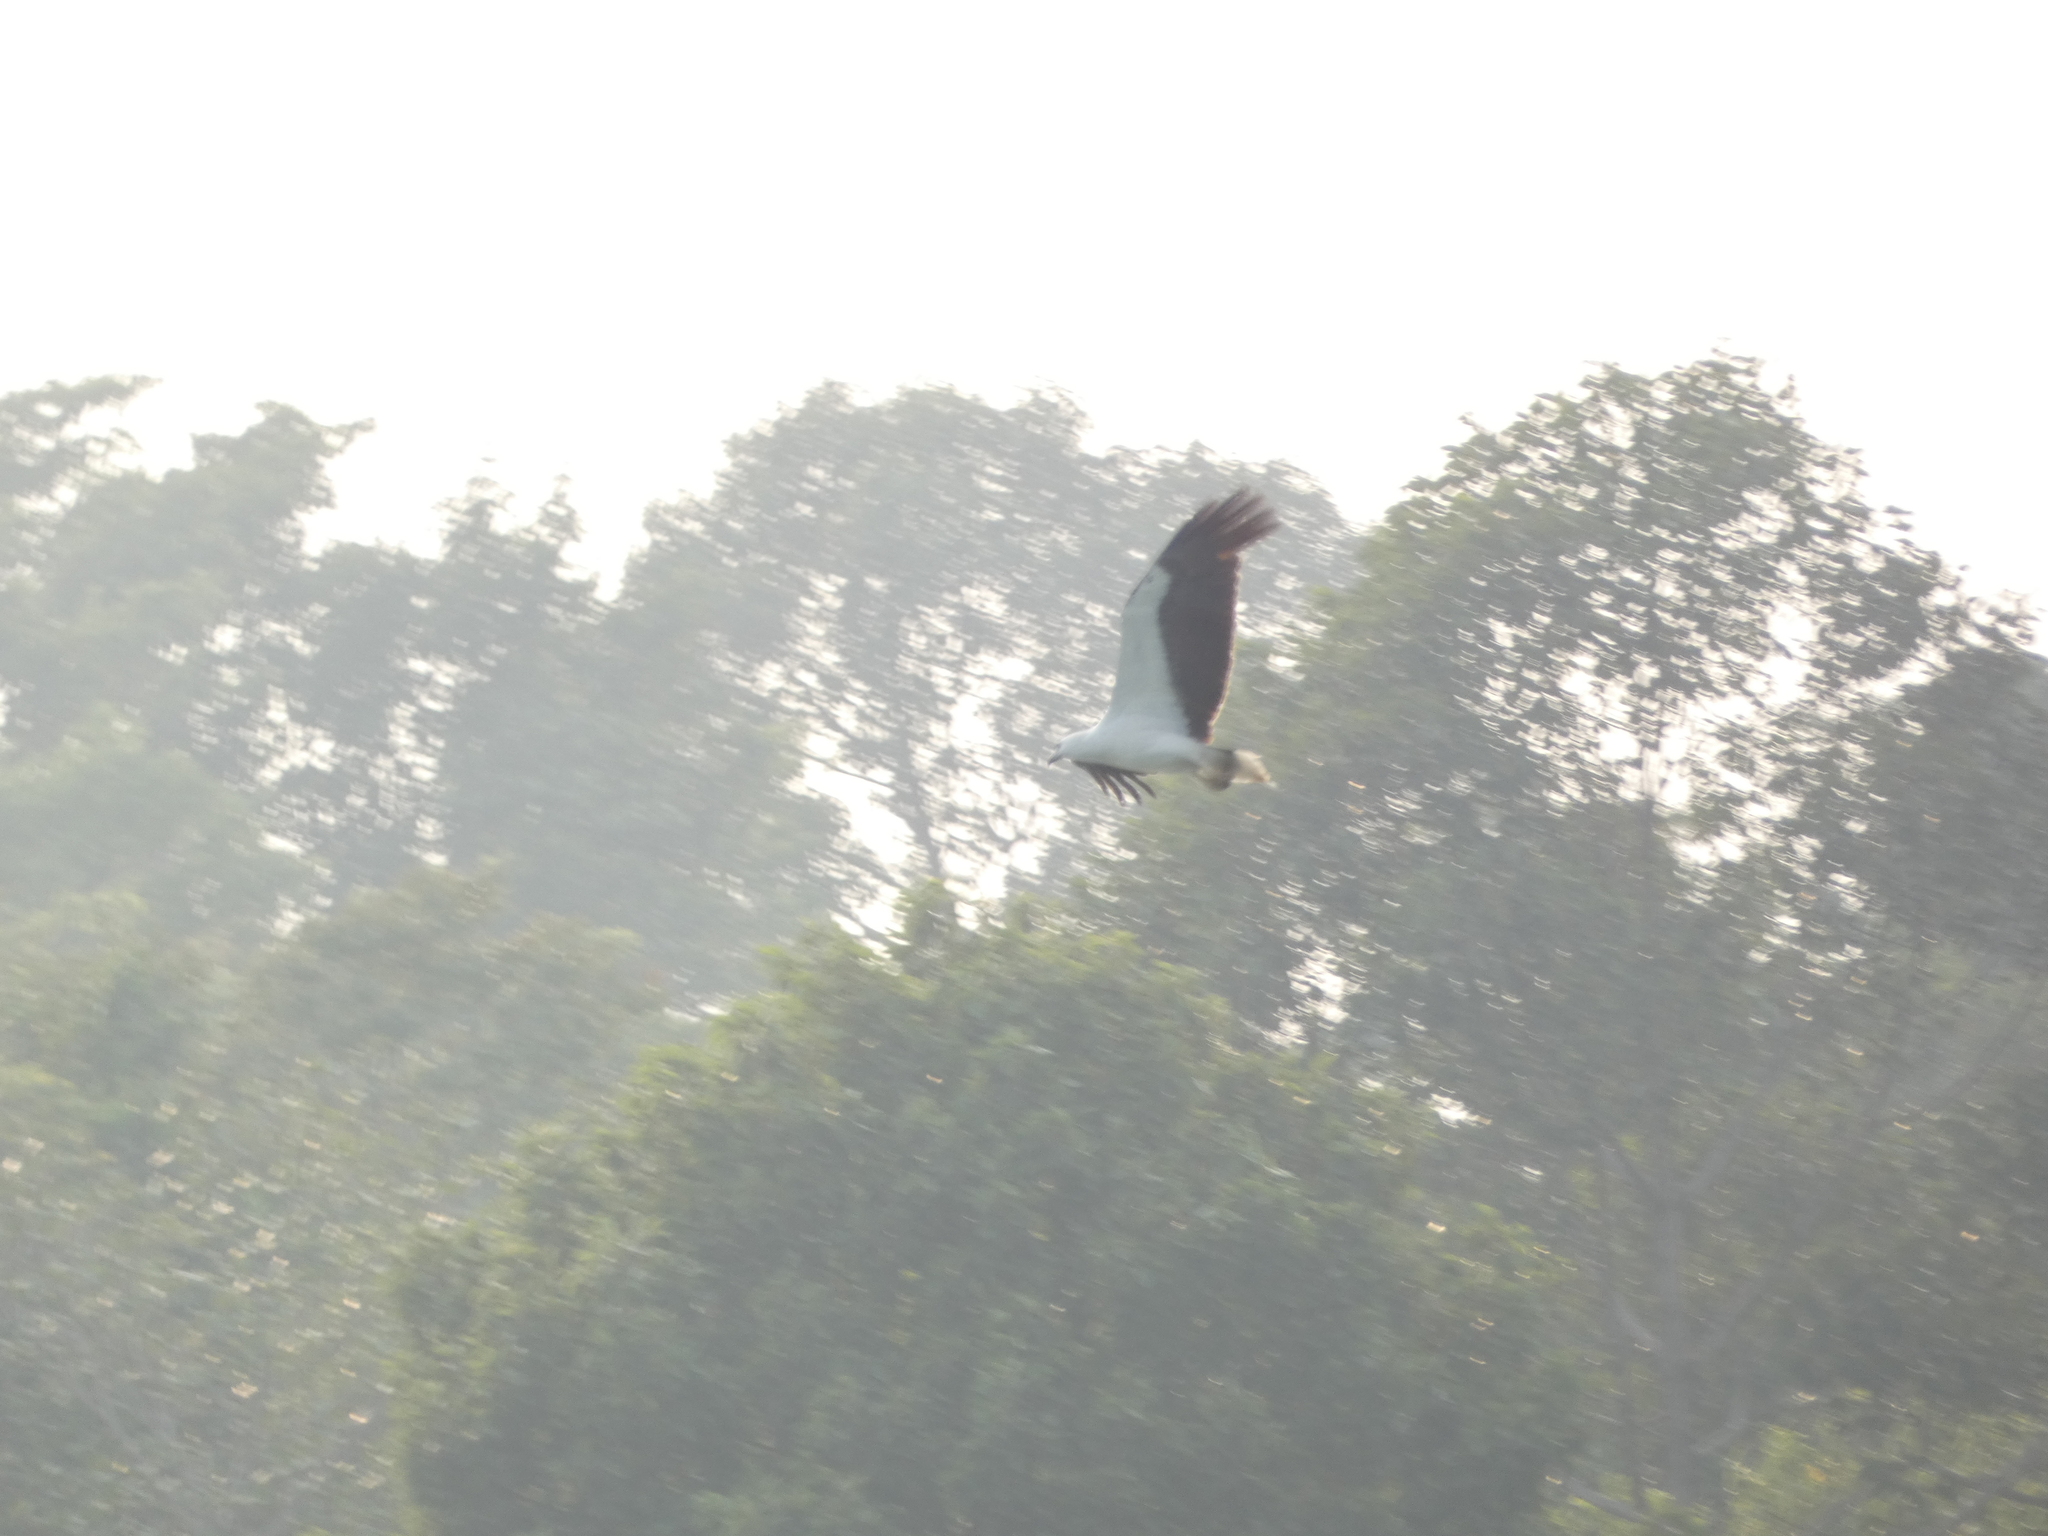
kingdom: Animalia
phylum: Chordata
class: Aves
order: Accipitriformes
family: Accipitridae
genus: Haliaeetus
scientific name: Haliaeetus leucogaster
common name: White-bellied sea eagle
